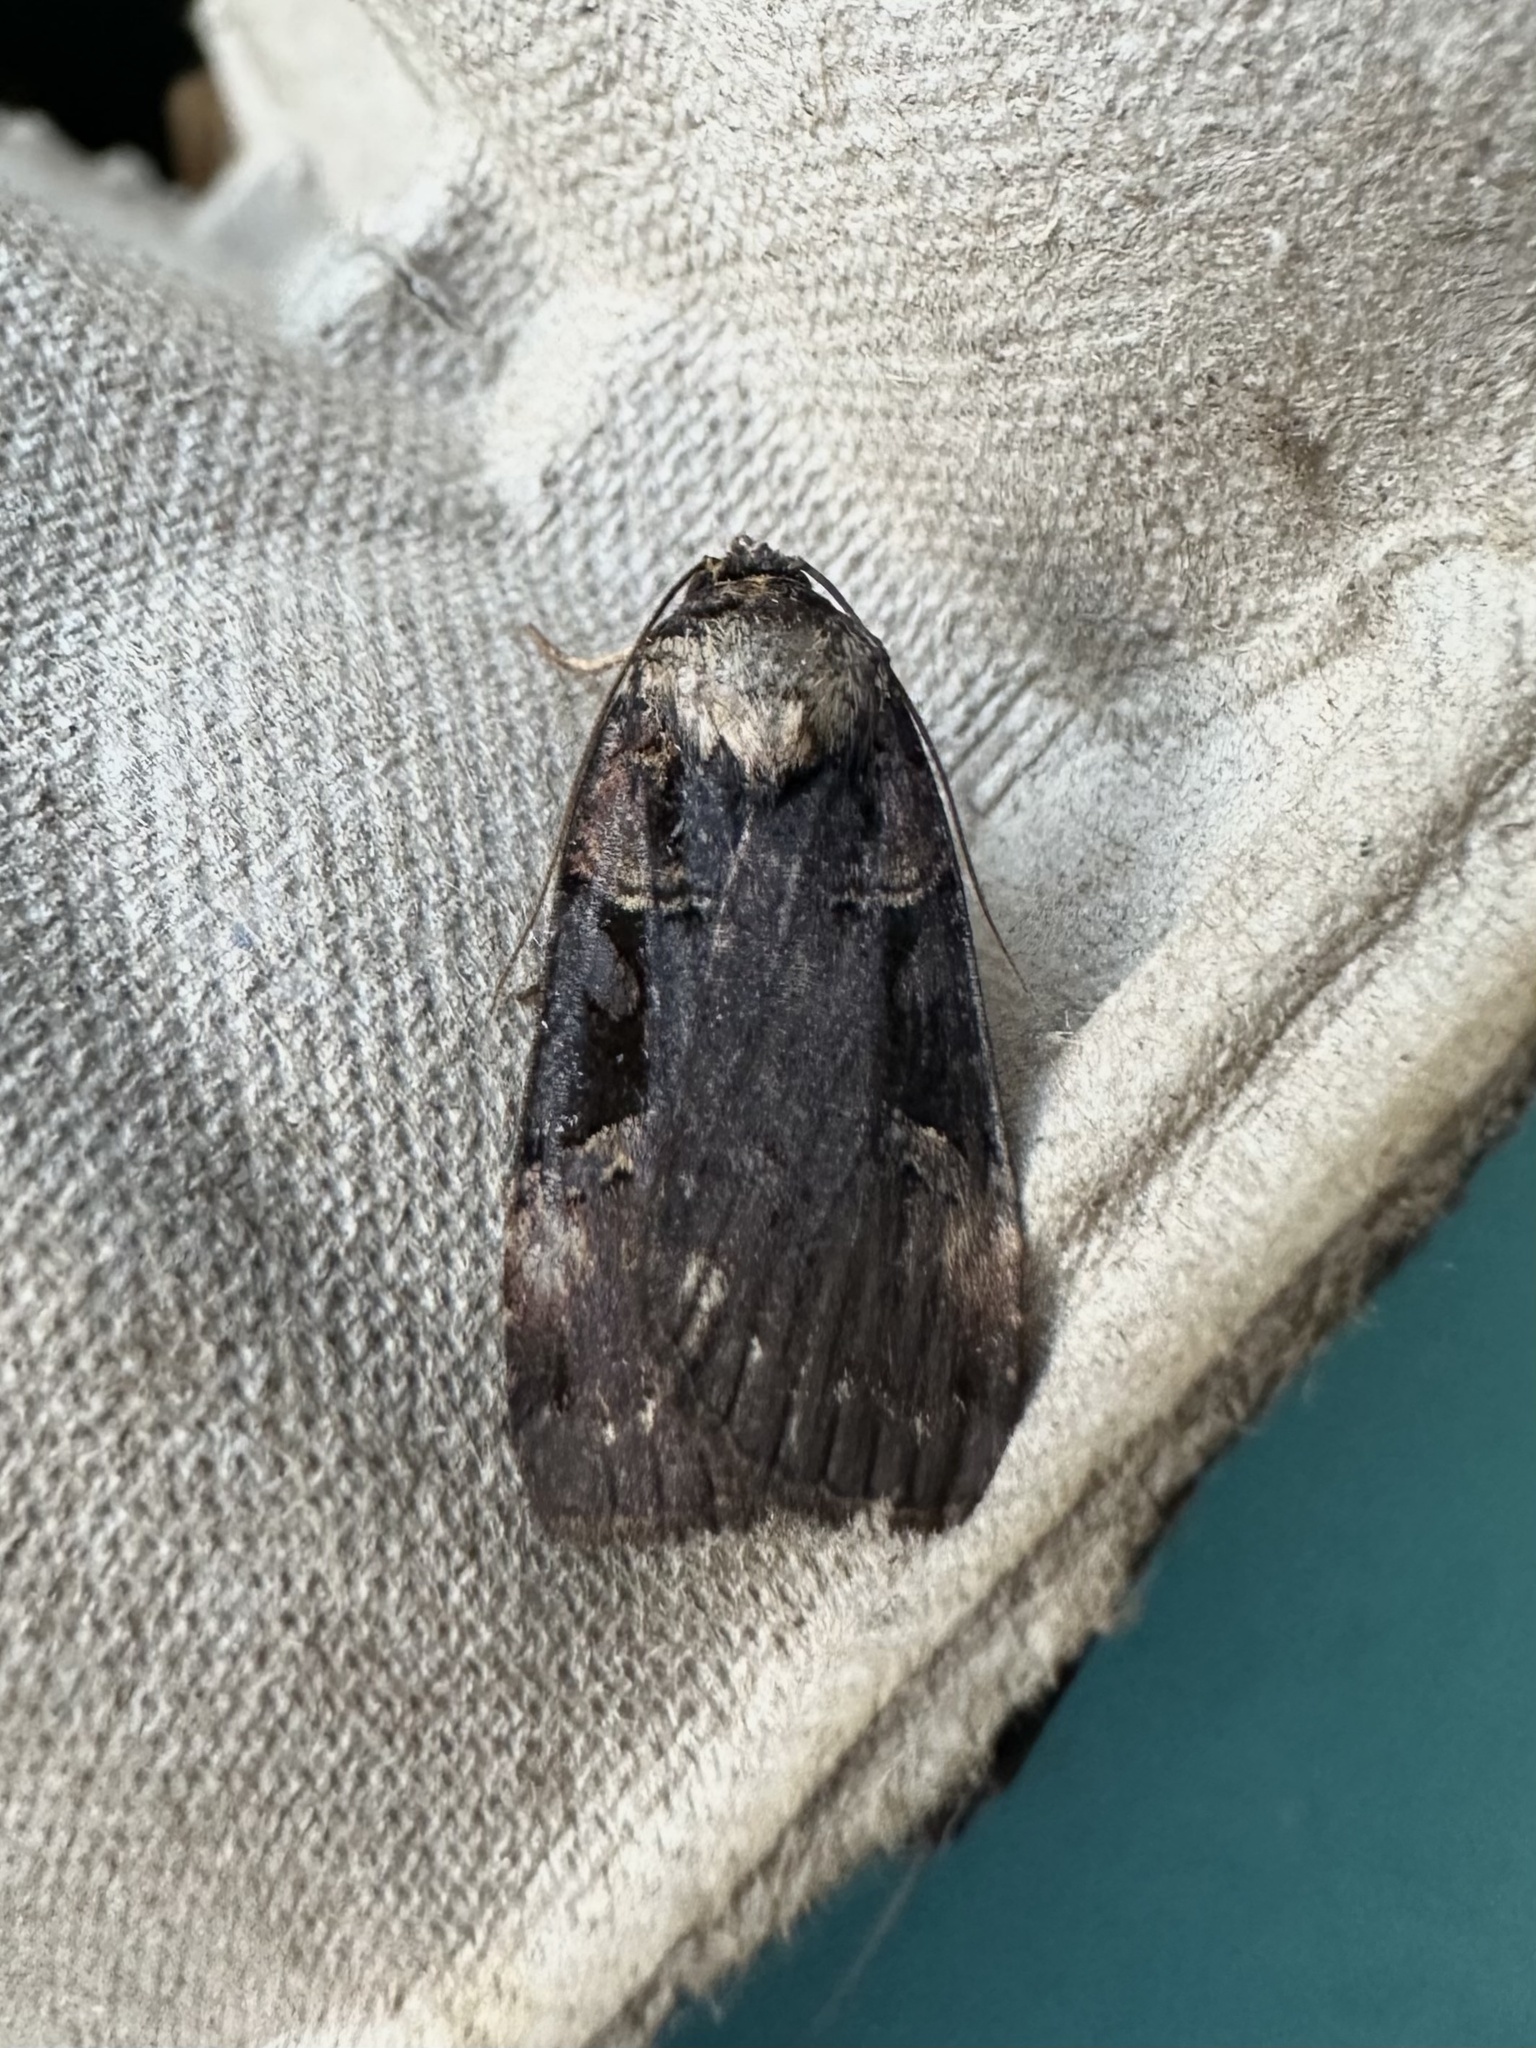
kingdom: Animalia
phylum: Arthropoda
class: Insecta
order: Lepidoptera
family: Noctuidae
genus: Pseudohermonassa
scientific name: Pseudohermonassa bicarnea
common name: Pink spotted dart
